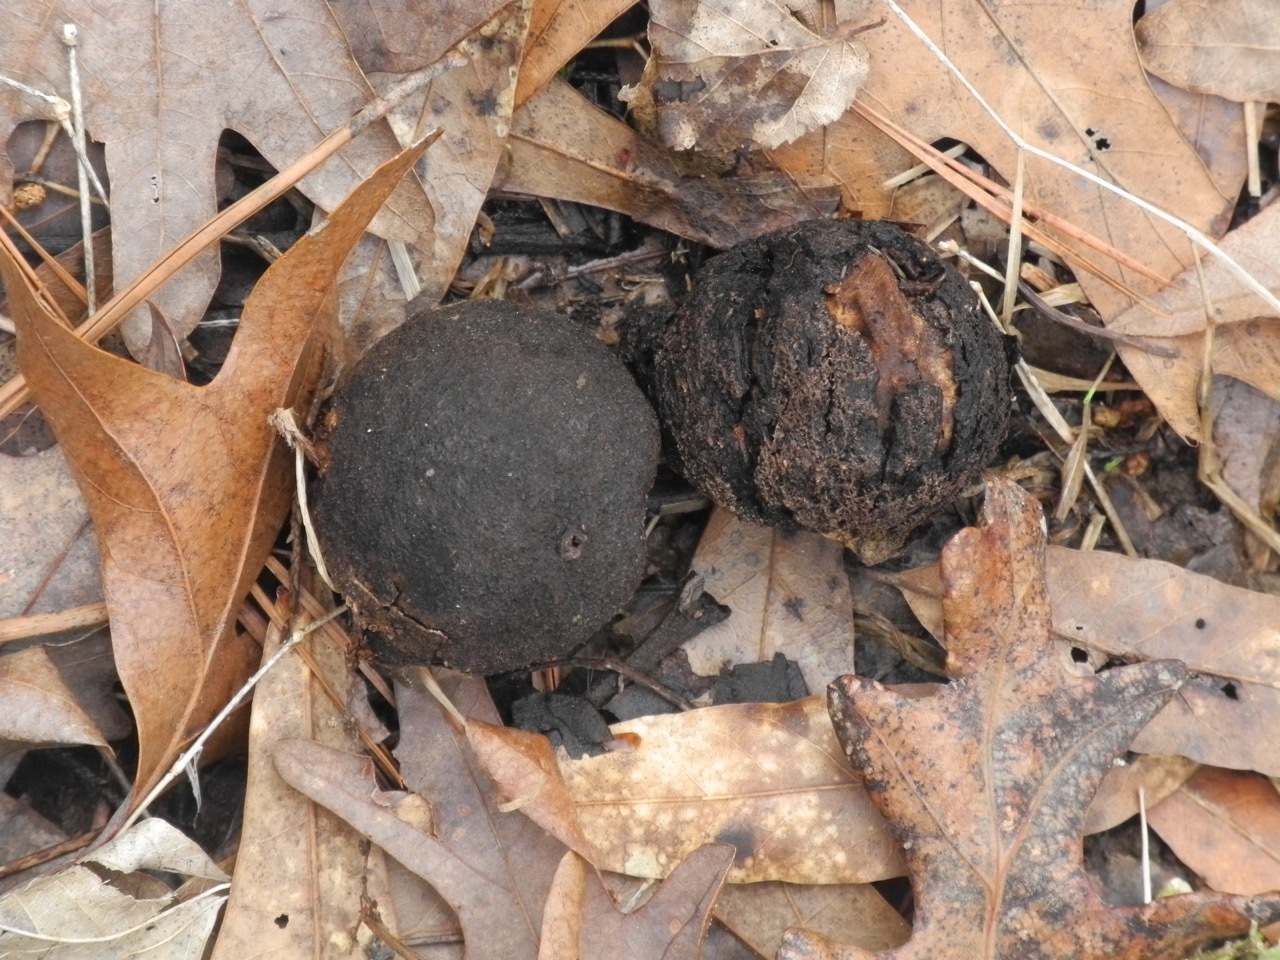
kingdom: Plantae
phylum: Tracheophyta
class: Magnoliopsida
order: Fagales
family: Juglandaceae
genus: Juglans
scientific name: Juglans nigra
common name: Black walnut
